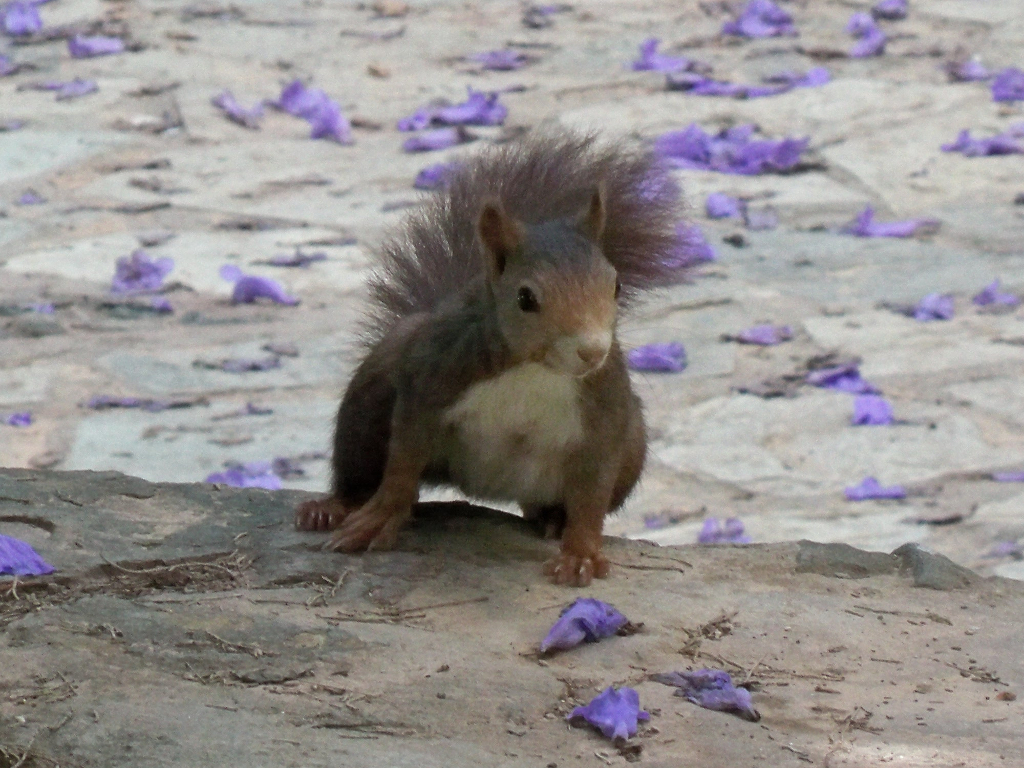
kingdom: Animalia
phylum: Chordata
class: Mammalia
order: Rodentia
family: Sciuridae
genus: Sciurus
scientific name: Sciurus vulgaris
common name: Eurasian red squirrel
